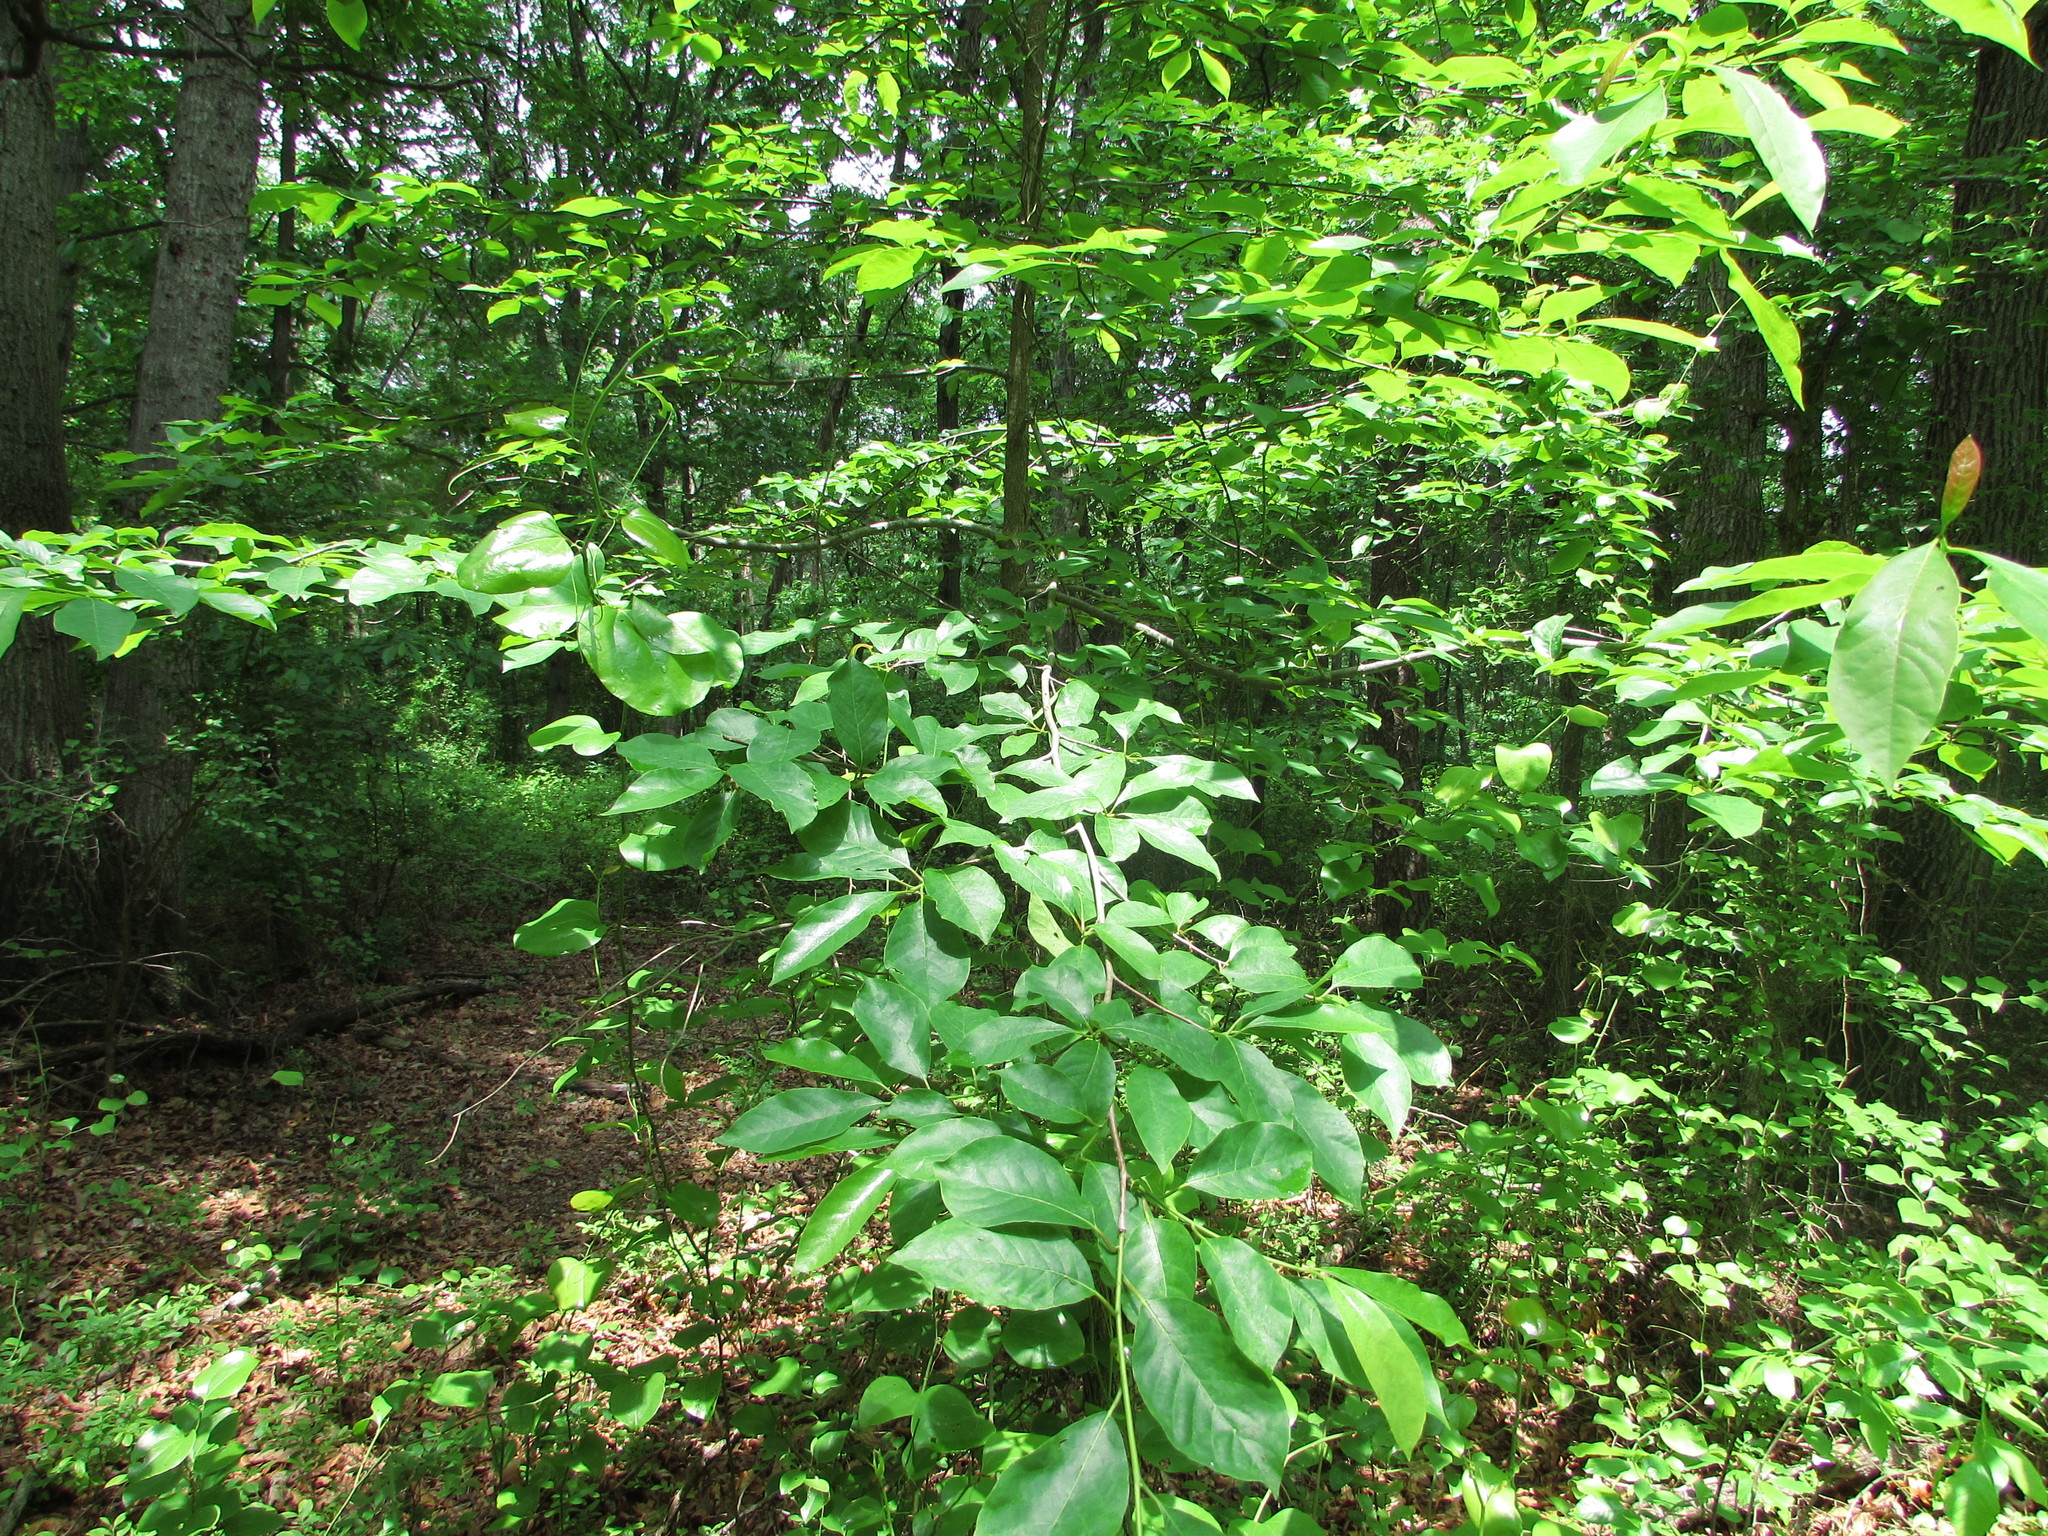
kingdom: Plantae
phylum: Tracheophyta
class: Magnoliopsida
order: Cornales
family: Nyssaceae
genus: Nyssa
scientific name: Nyssa sylvatica
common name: Black tupelo
